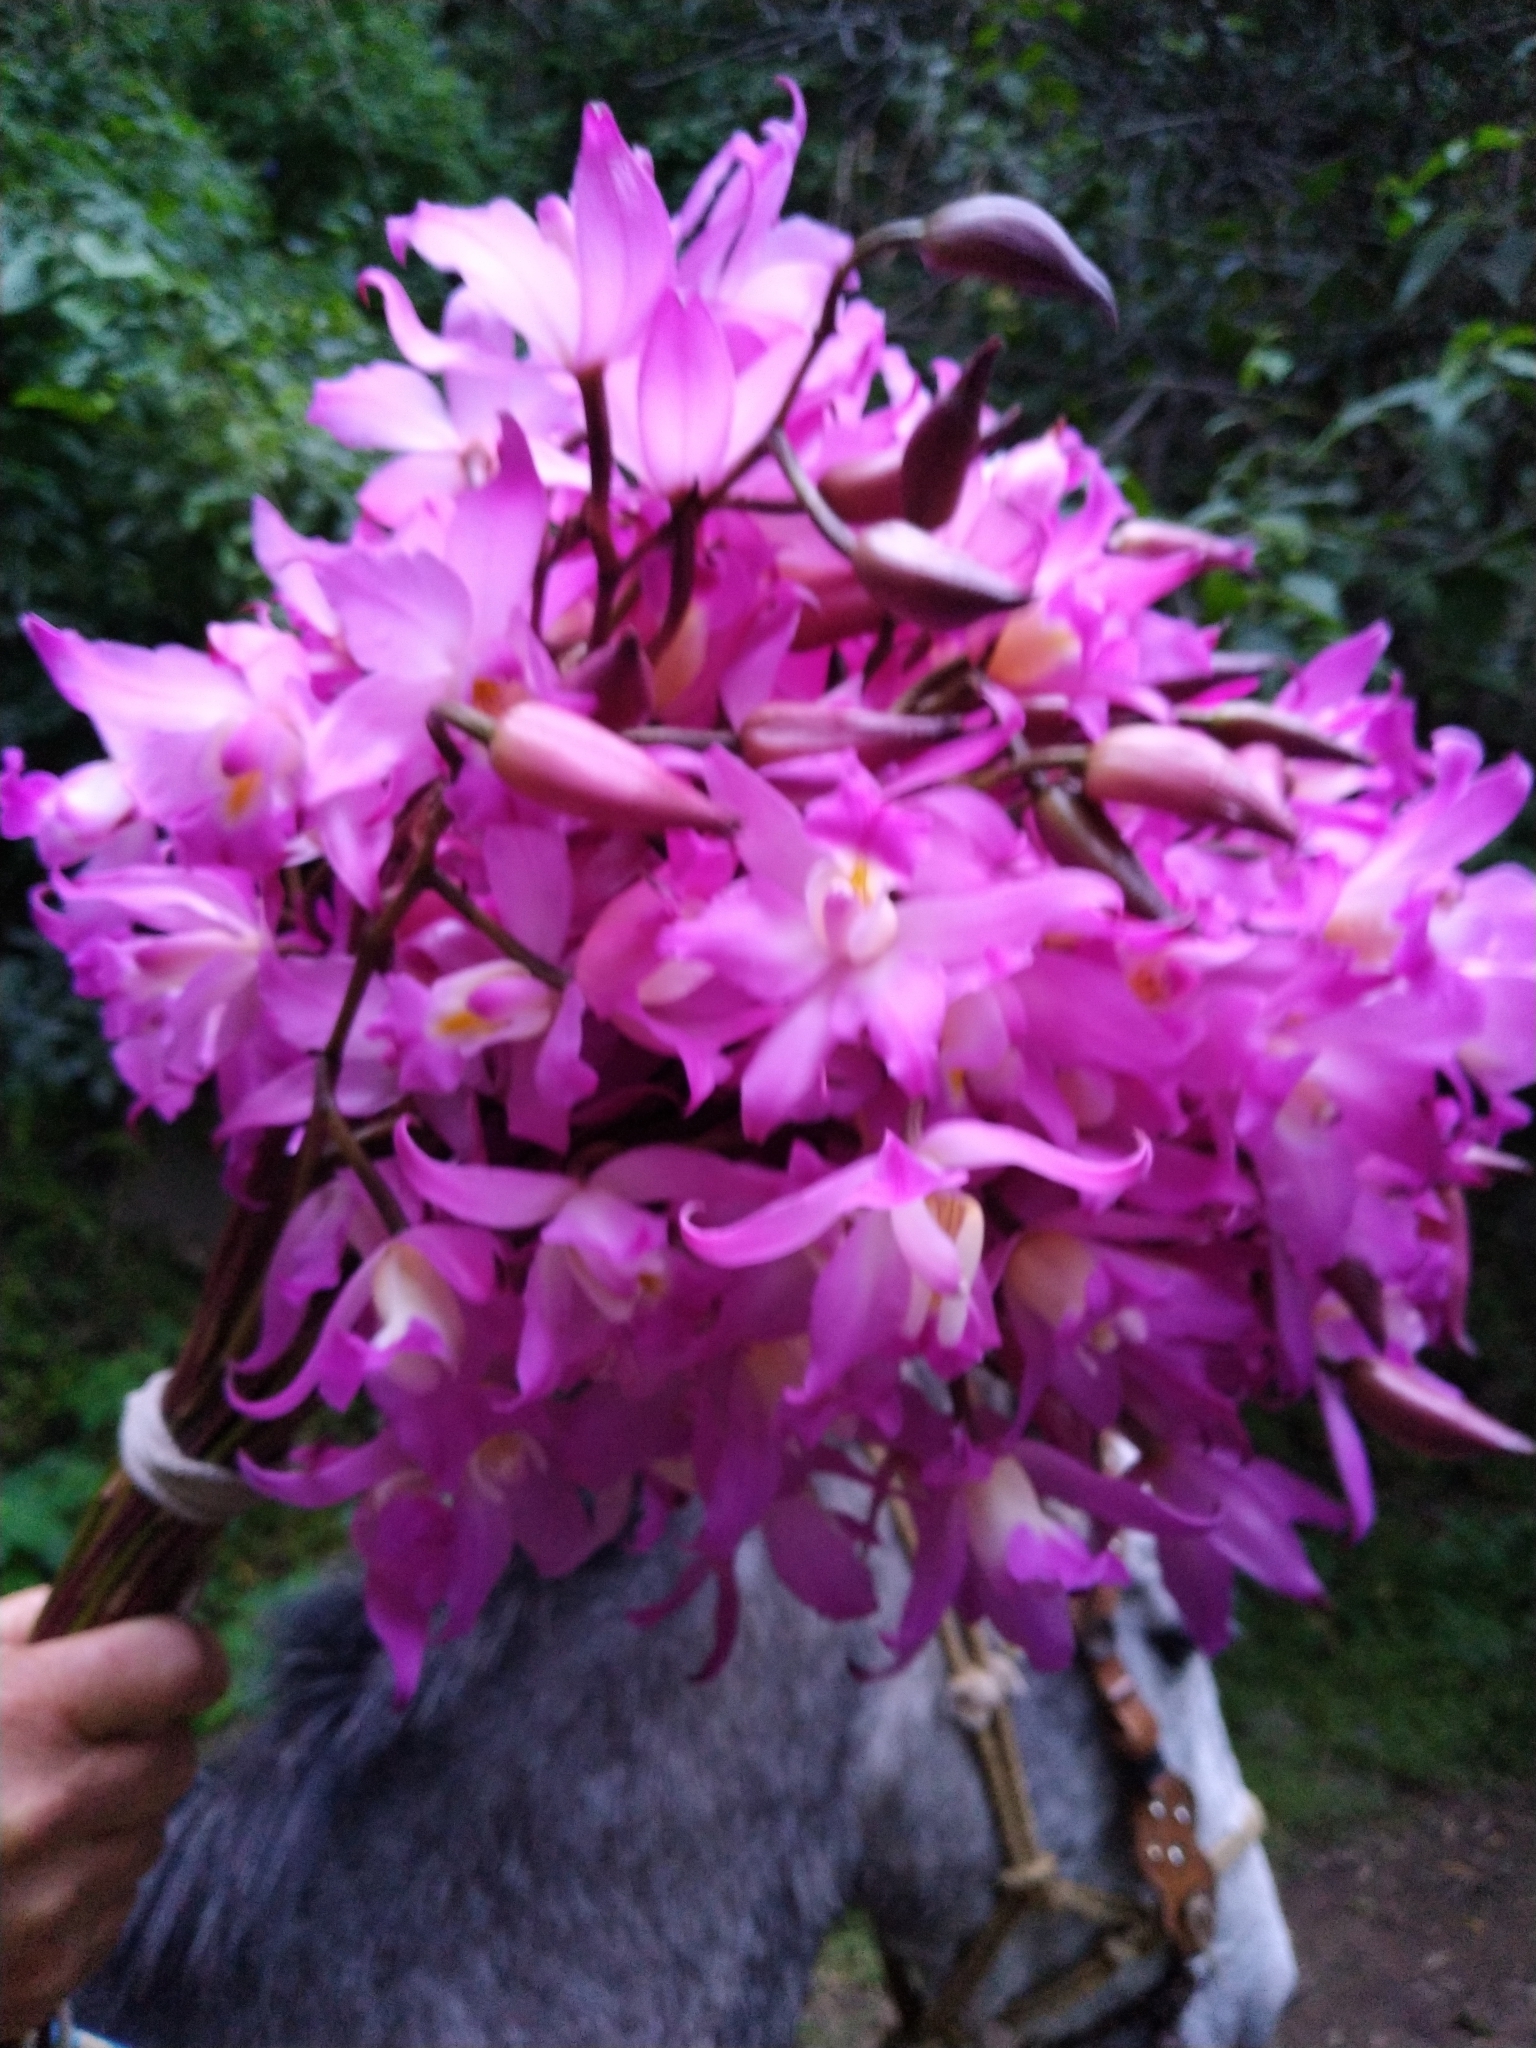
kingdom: Plantae
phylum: Tracheophyta
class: Liliopsida
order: Asparagales
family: Orchidaceae
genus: Laelia
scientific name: Laelia autumnalis
